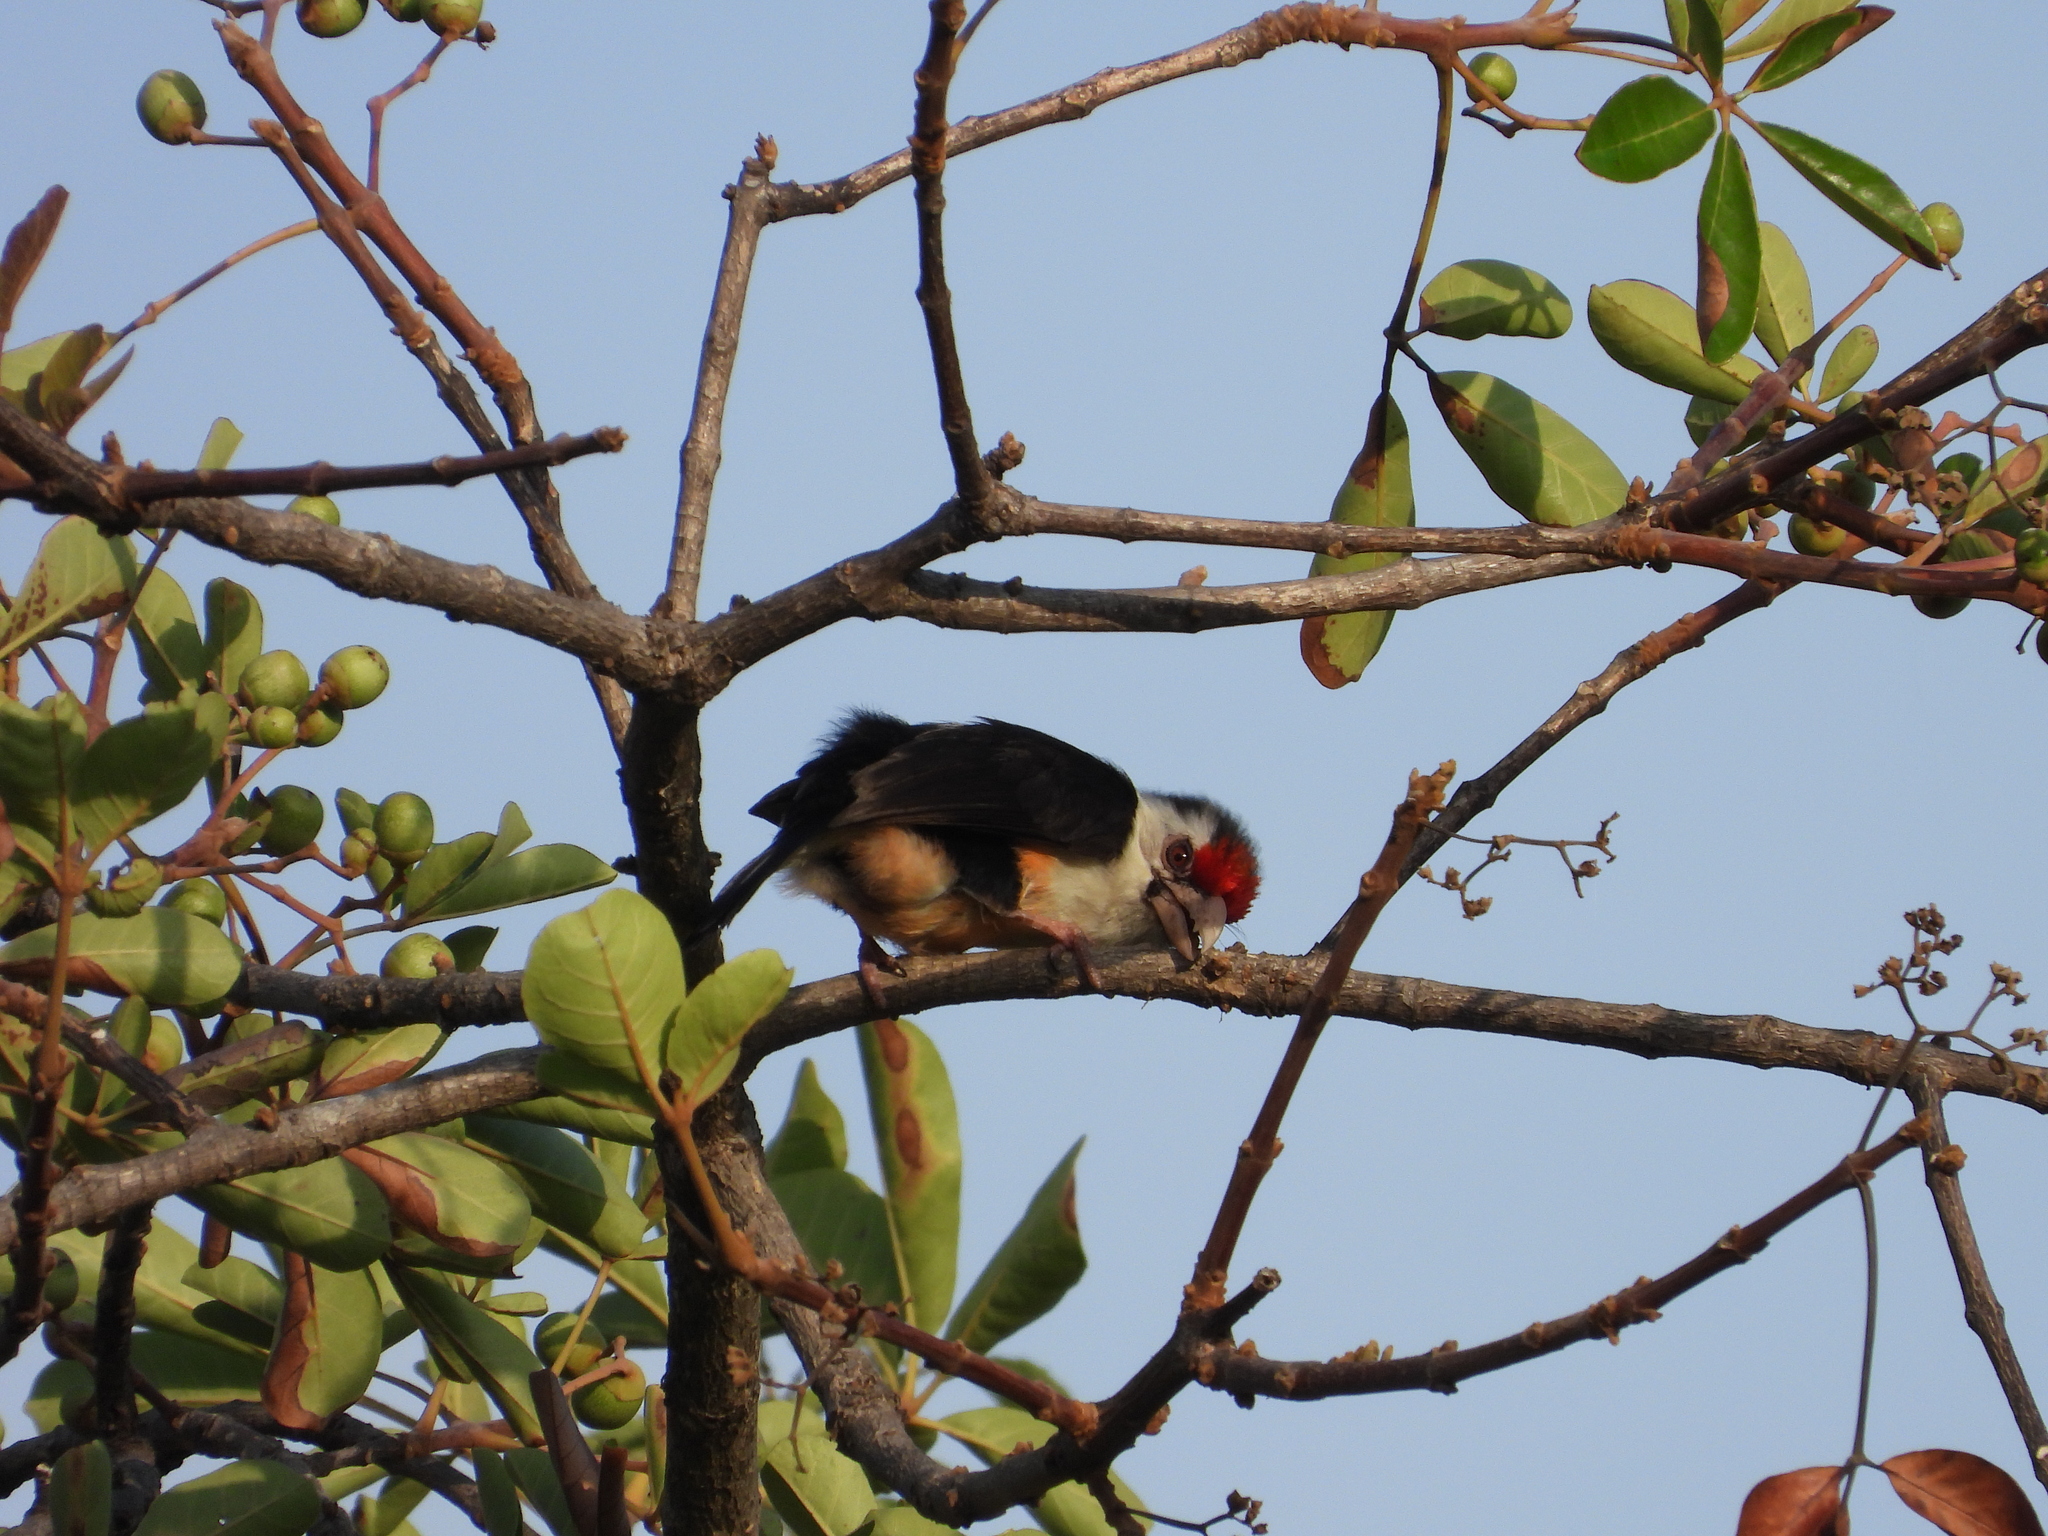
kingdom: Animalia
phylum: Chordata
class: Aves
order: Piciformes
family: Lybiidae
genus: Lybius
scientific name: Lybius minor
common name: Black-backed barbet
